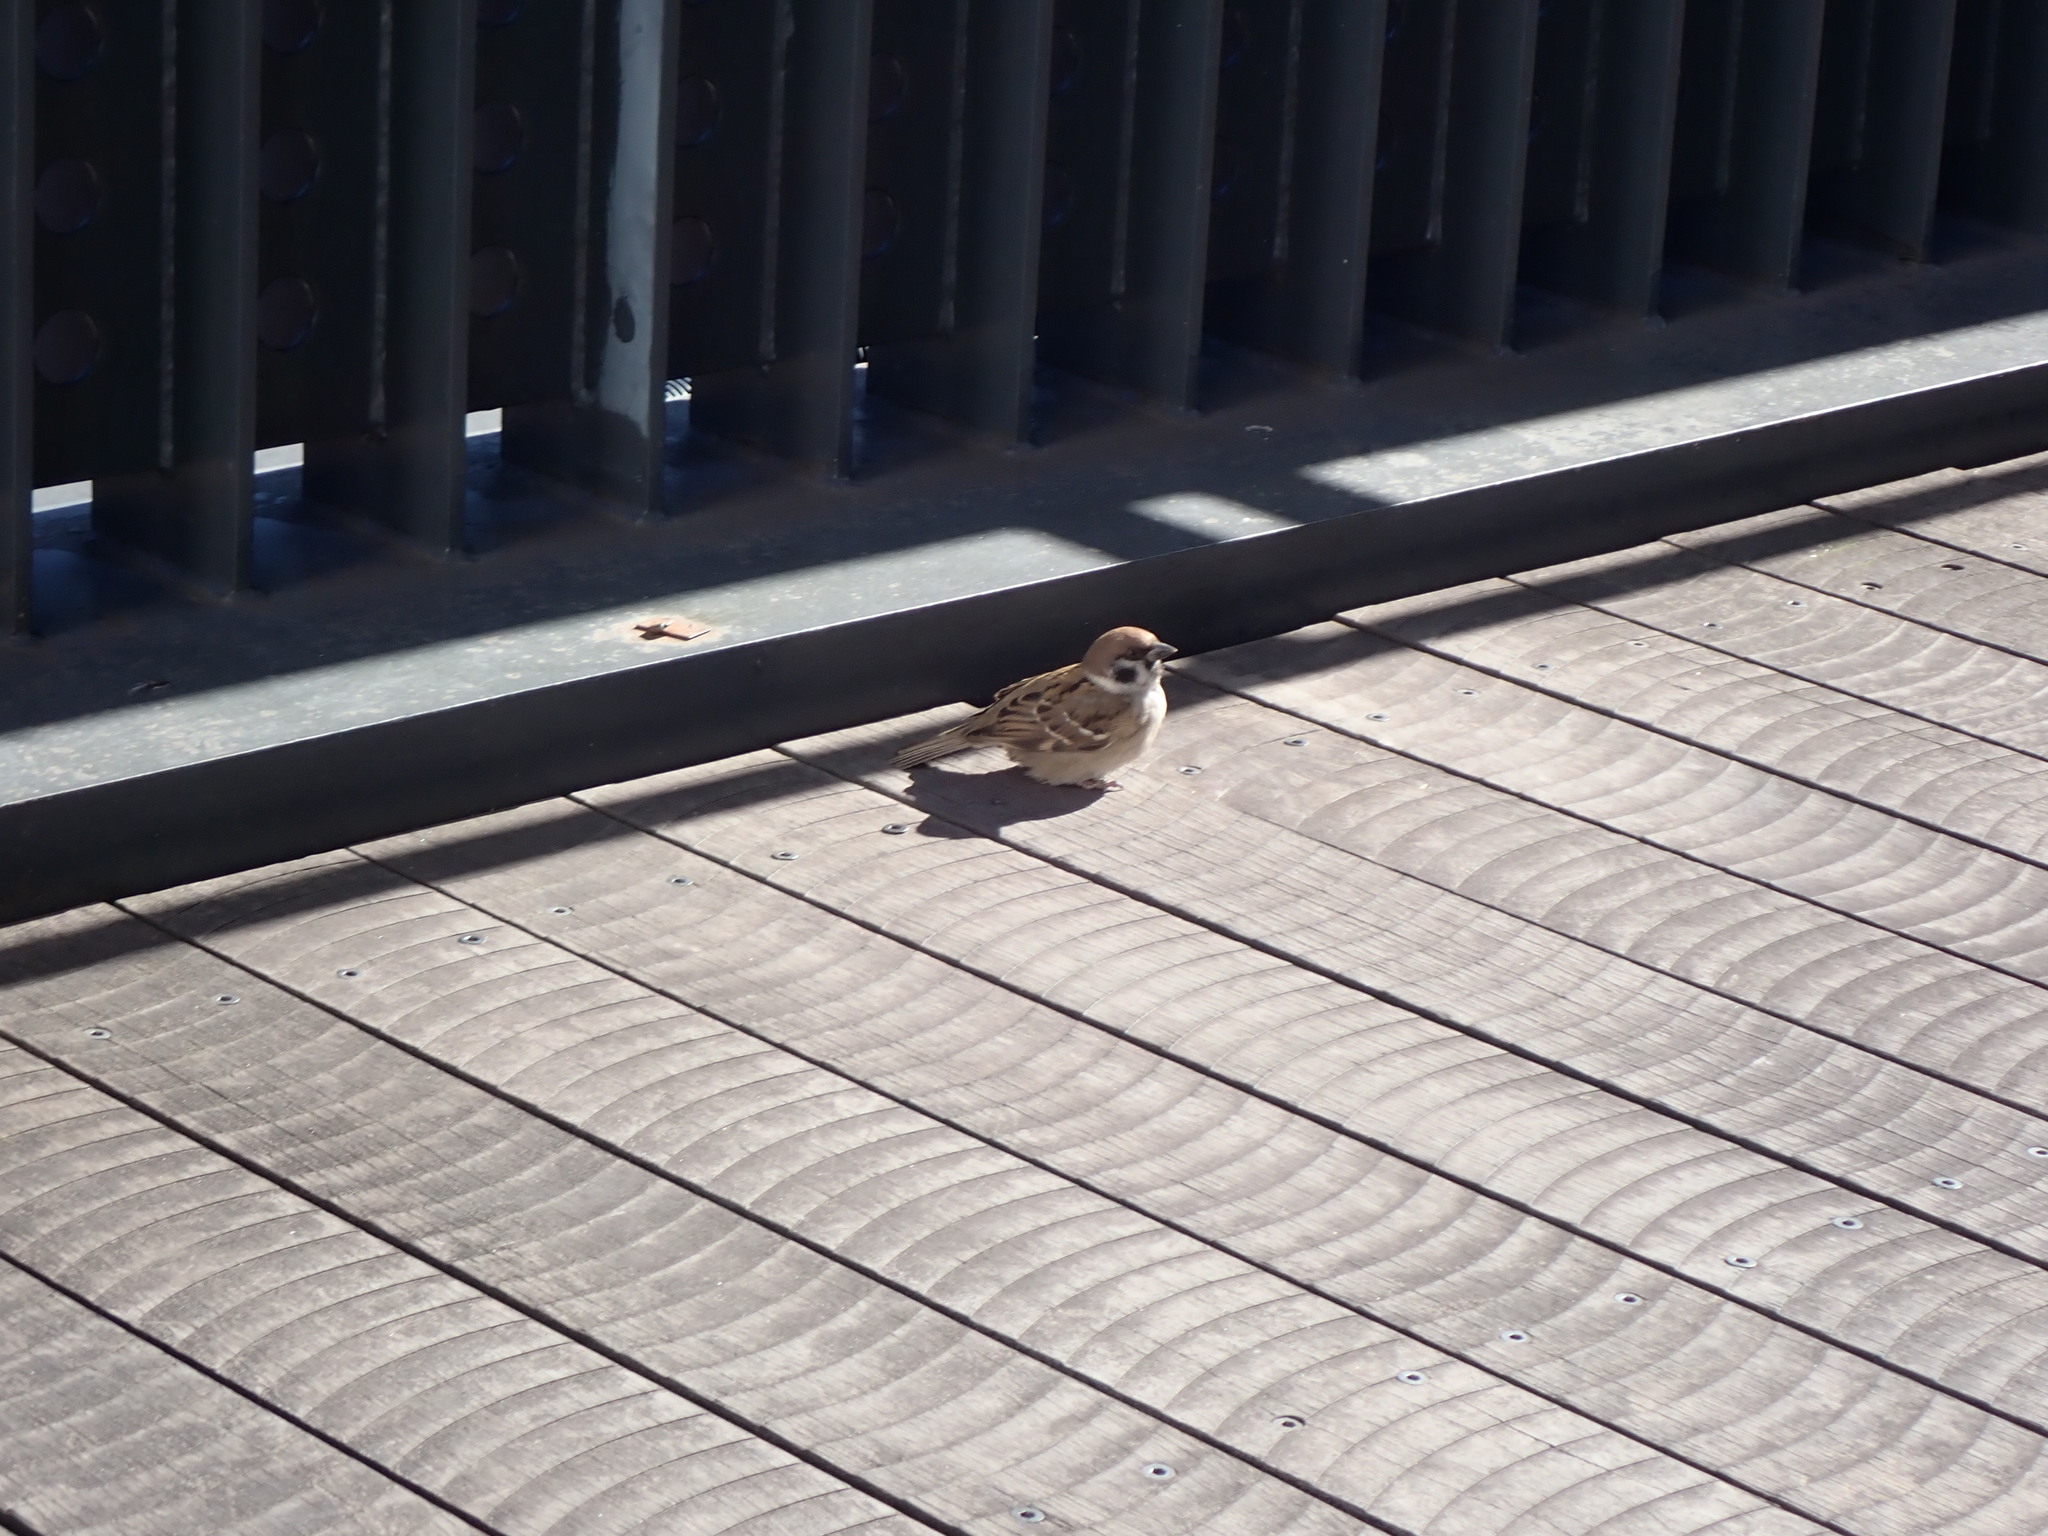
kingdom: Animalia
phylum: Chordata
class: Aves
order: Passeriformes
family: Passeridae
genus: Passer
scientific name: Passer montanus
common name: Eurasian tree sparrow
